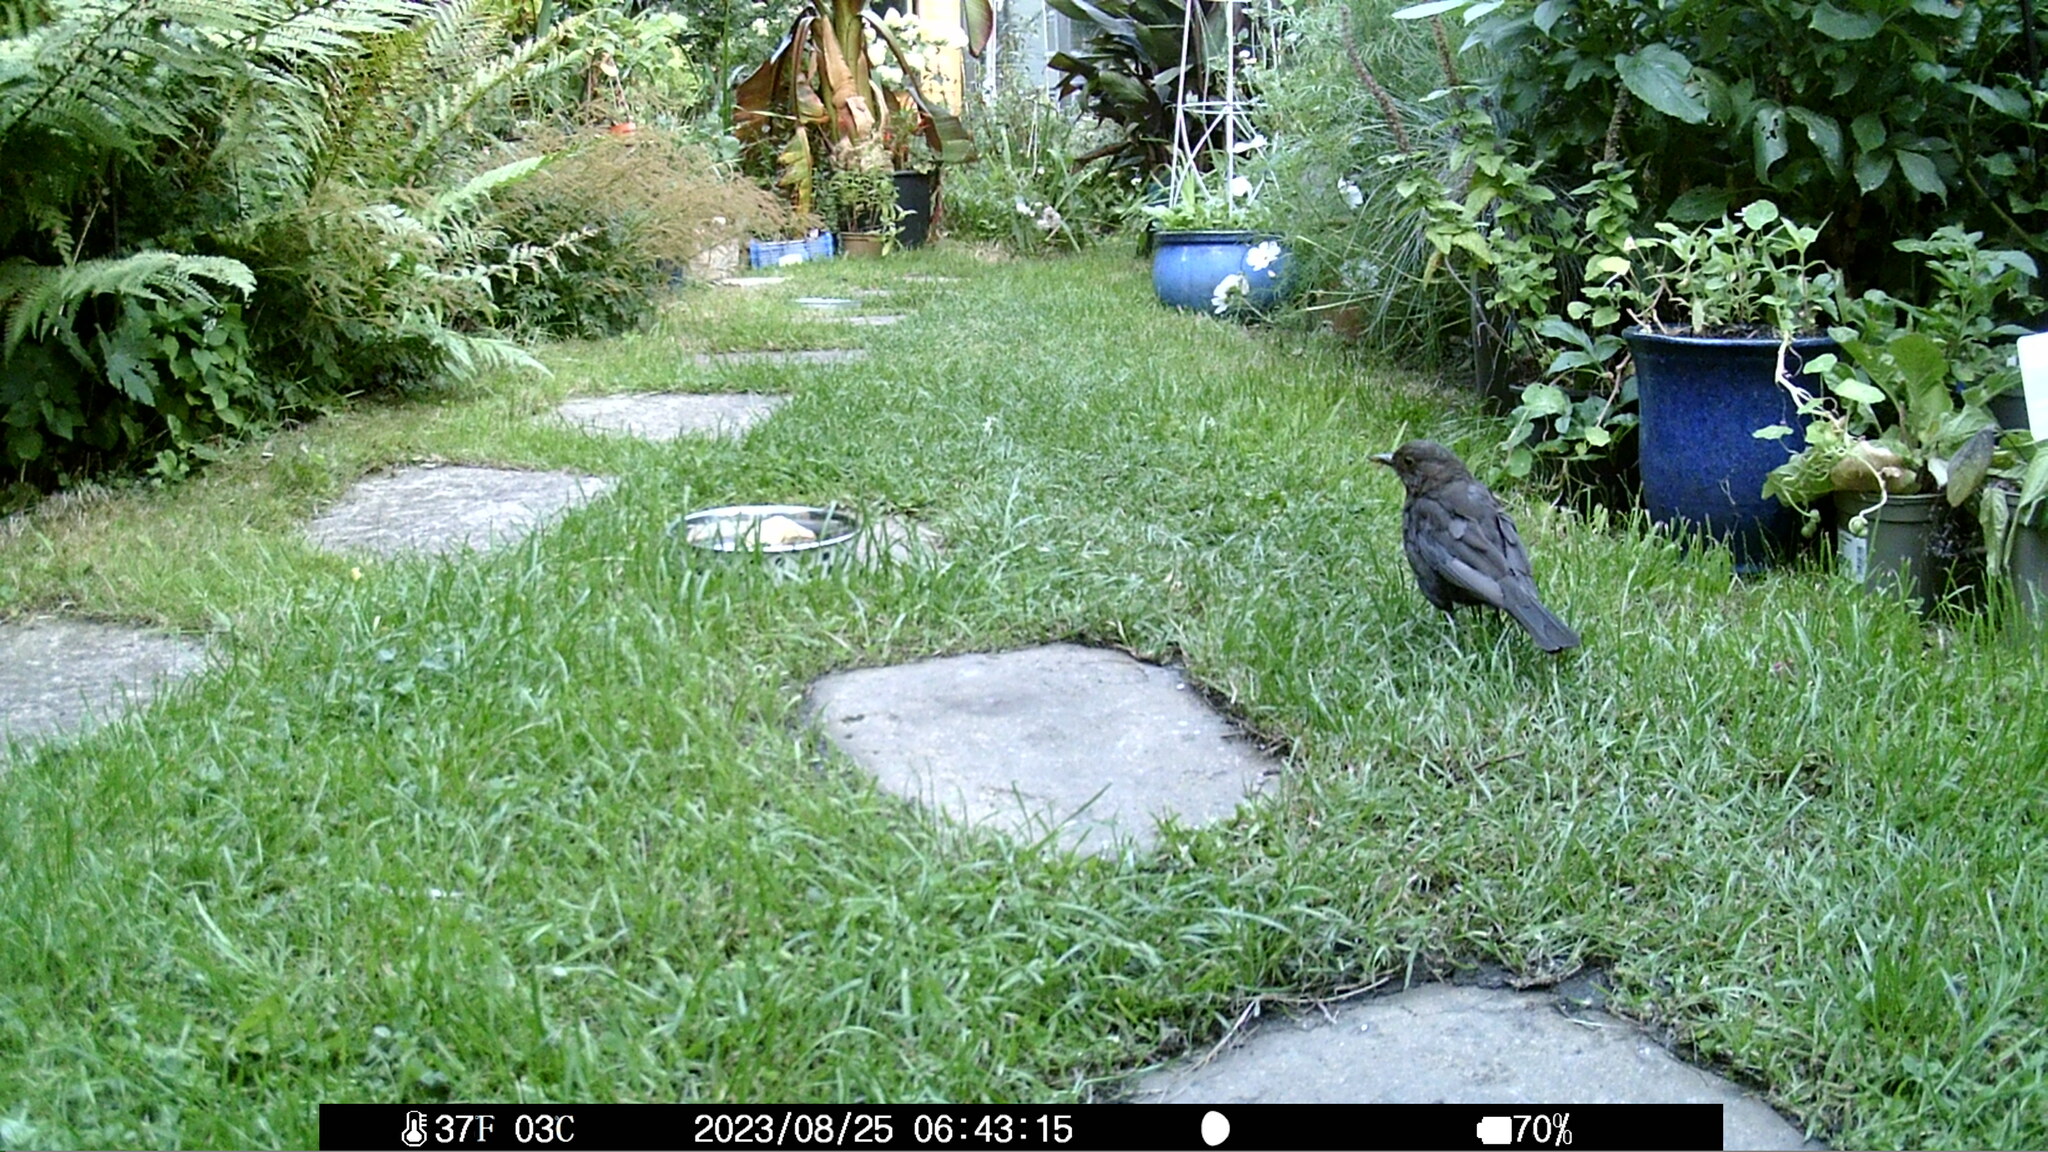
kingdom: Animalia
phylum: Chordata
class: Aves
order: Passeriformes
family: Turdidae
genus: Turdus
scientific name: Turdus merula
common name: Common blackbird
